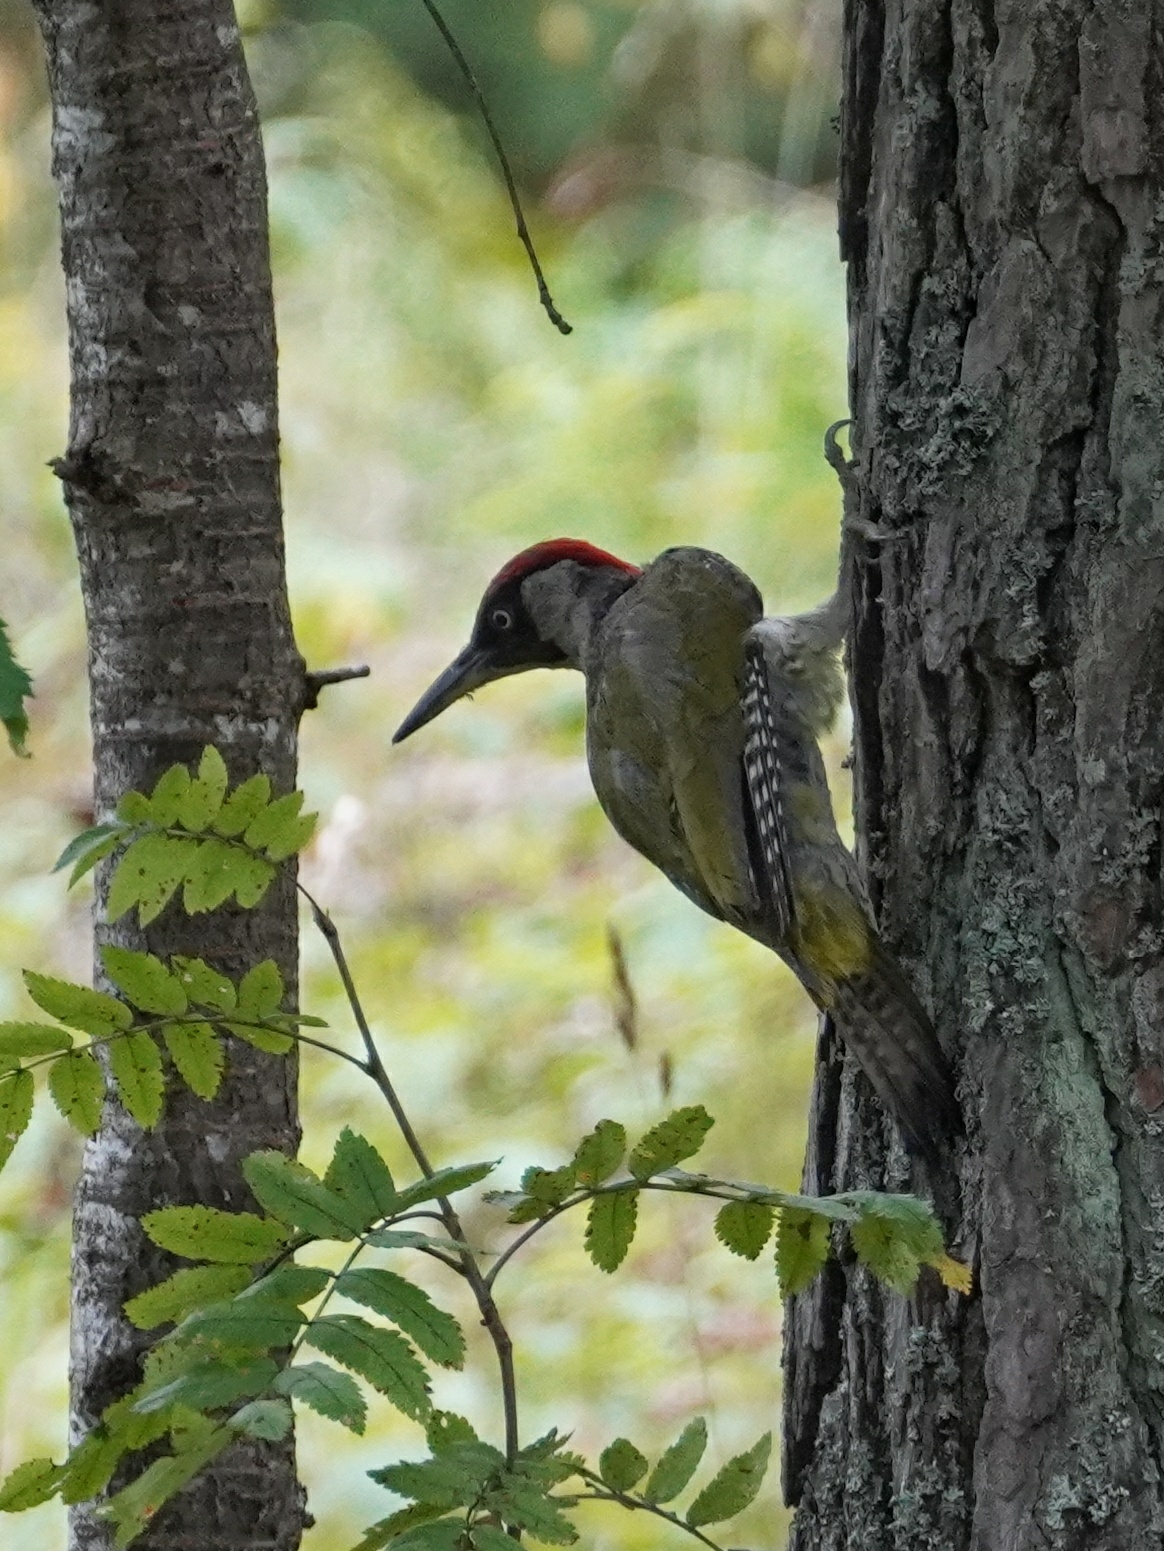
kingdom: Animalia
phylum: Chordata
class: Aves
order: Piciformes
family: Picidae
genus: Picus
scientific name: Picus viridis
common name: European green woodpecker
